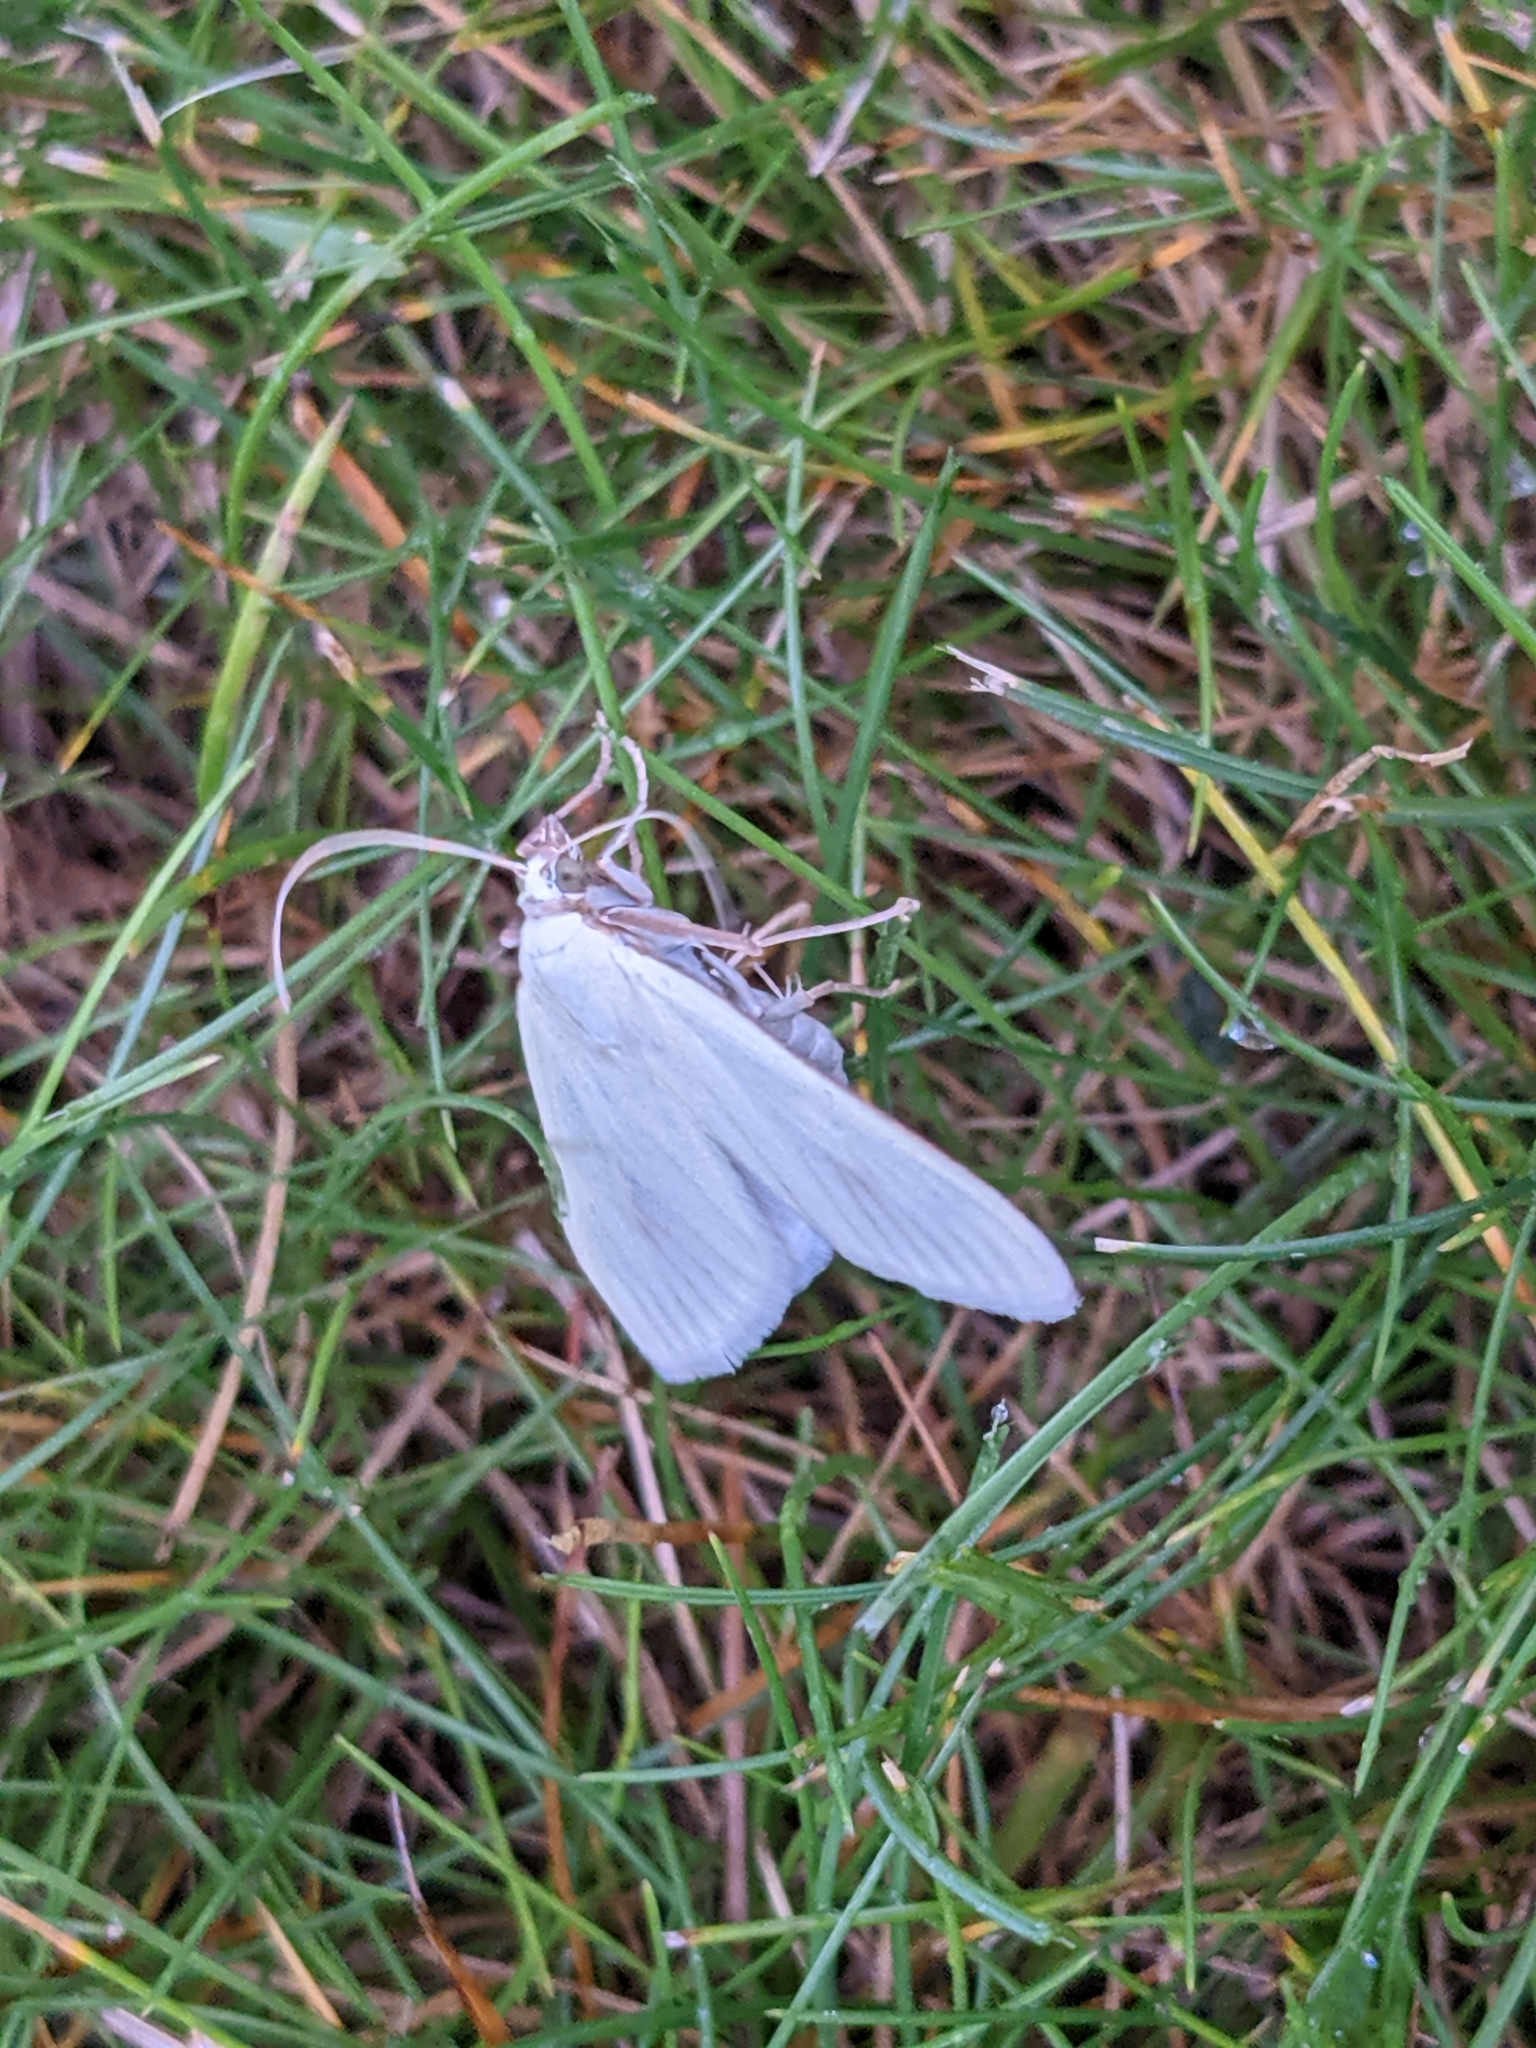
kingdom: Animalia
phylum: Arthropoda
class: Insecta
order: Lepidoptera
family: Crambidae
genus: Sitochroa
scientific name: Sitochroa palealis
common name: Greenish-yellow sitochroa moth
